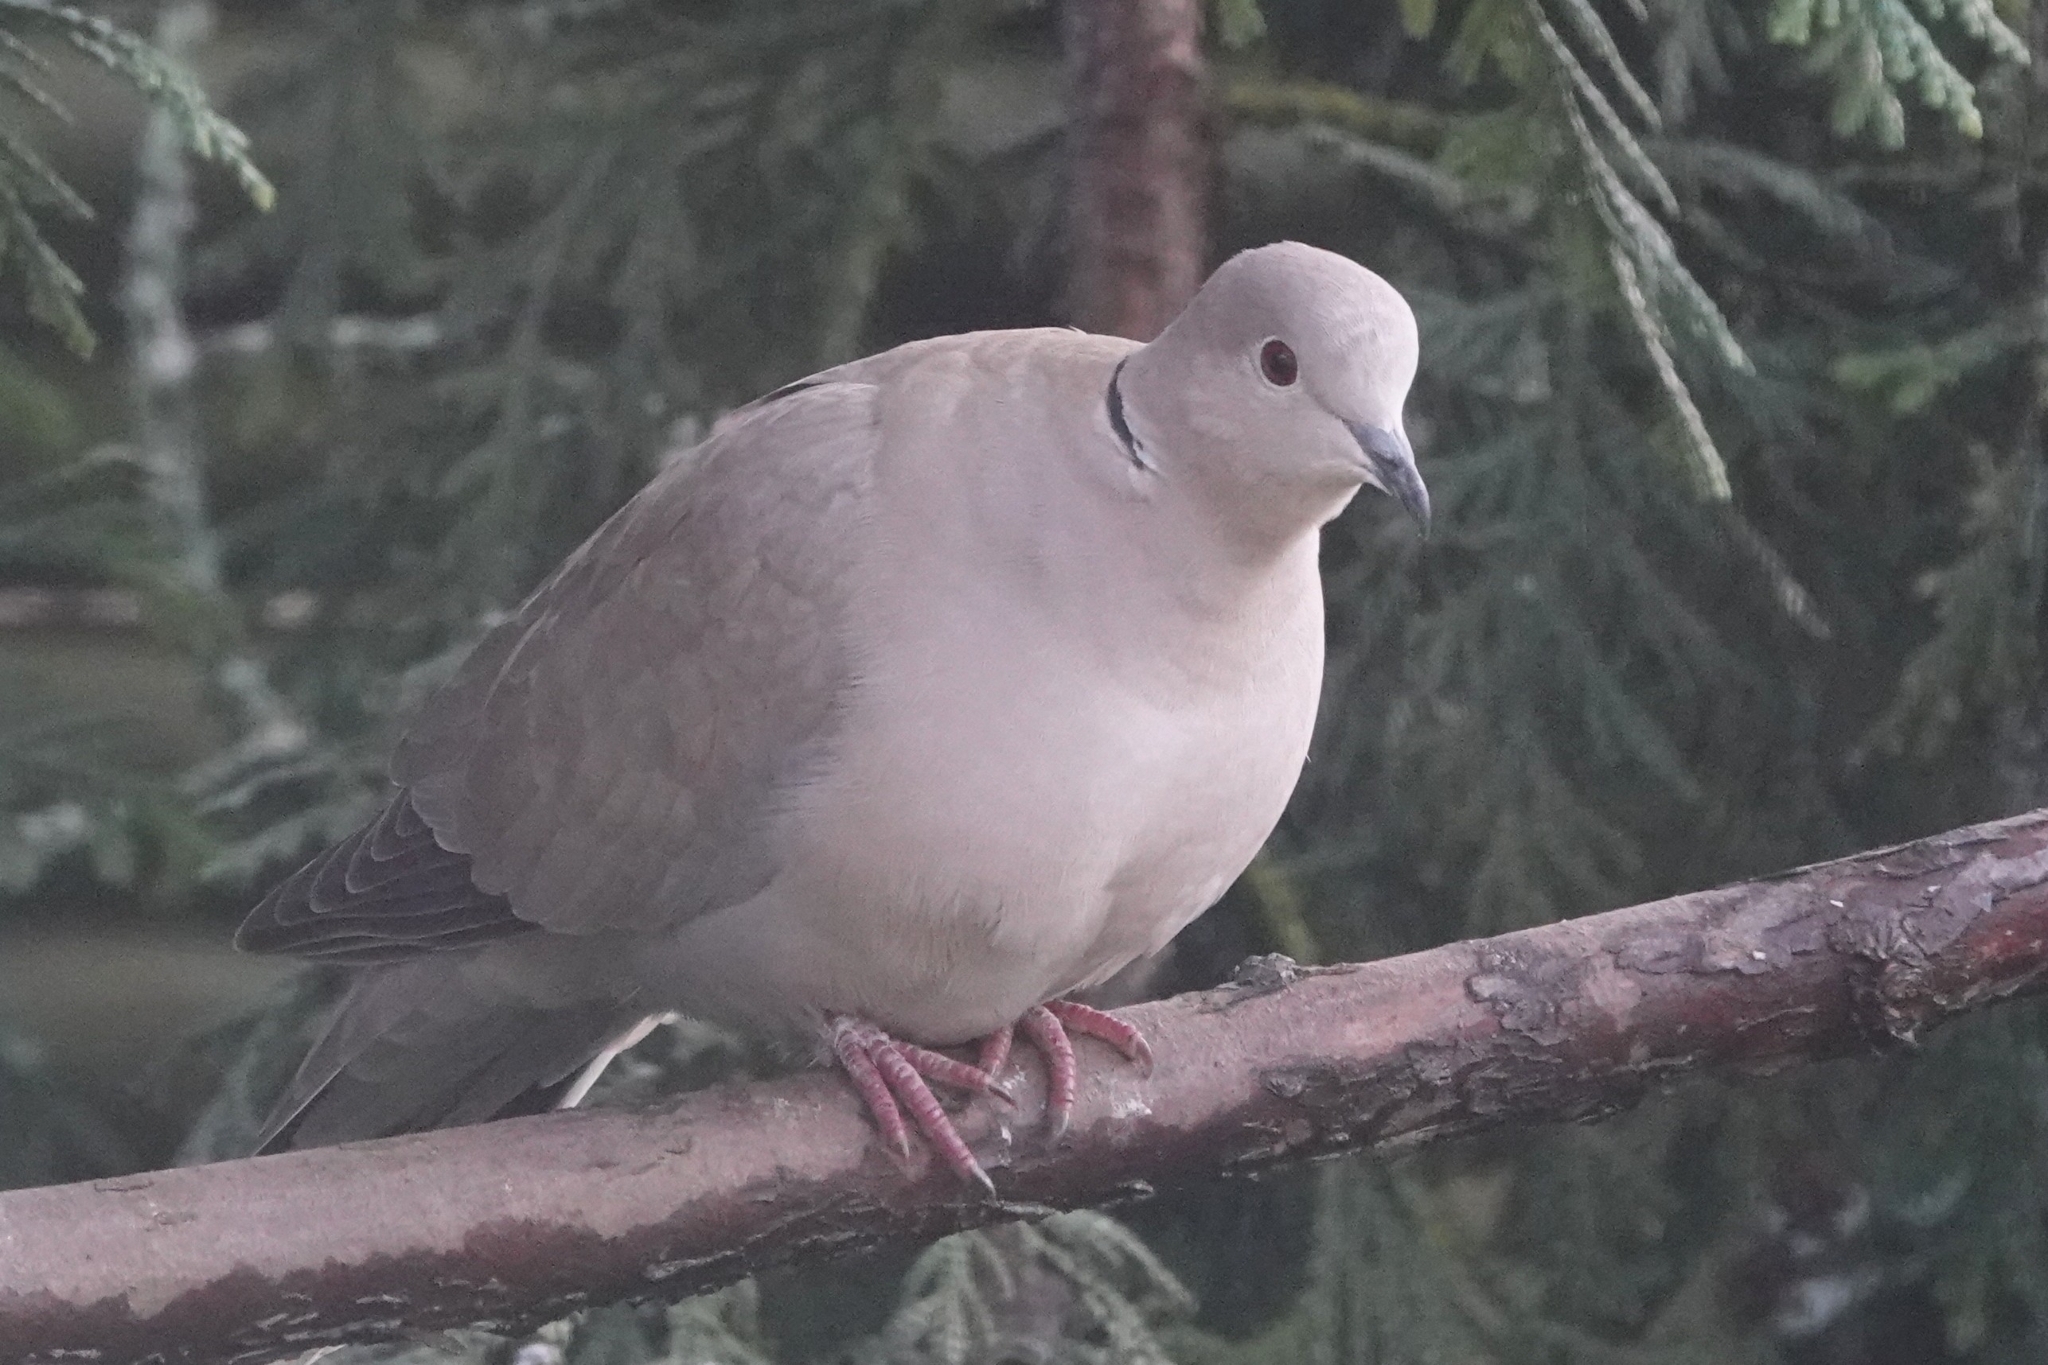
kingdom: Animalia
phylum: Chordata
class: Aves
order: Columbiformes
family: Columbidae
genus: Streptopelia
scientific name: Streptopelia decaocto
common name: Eurasian collared dove
